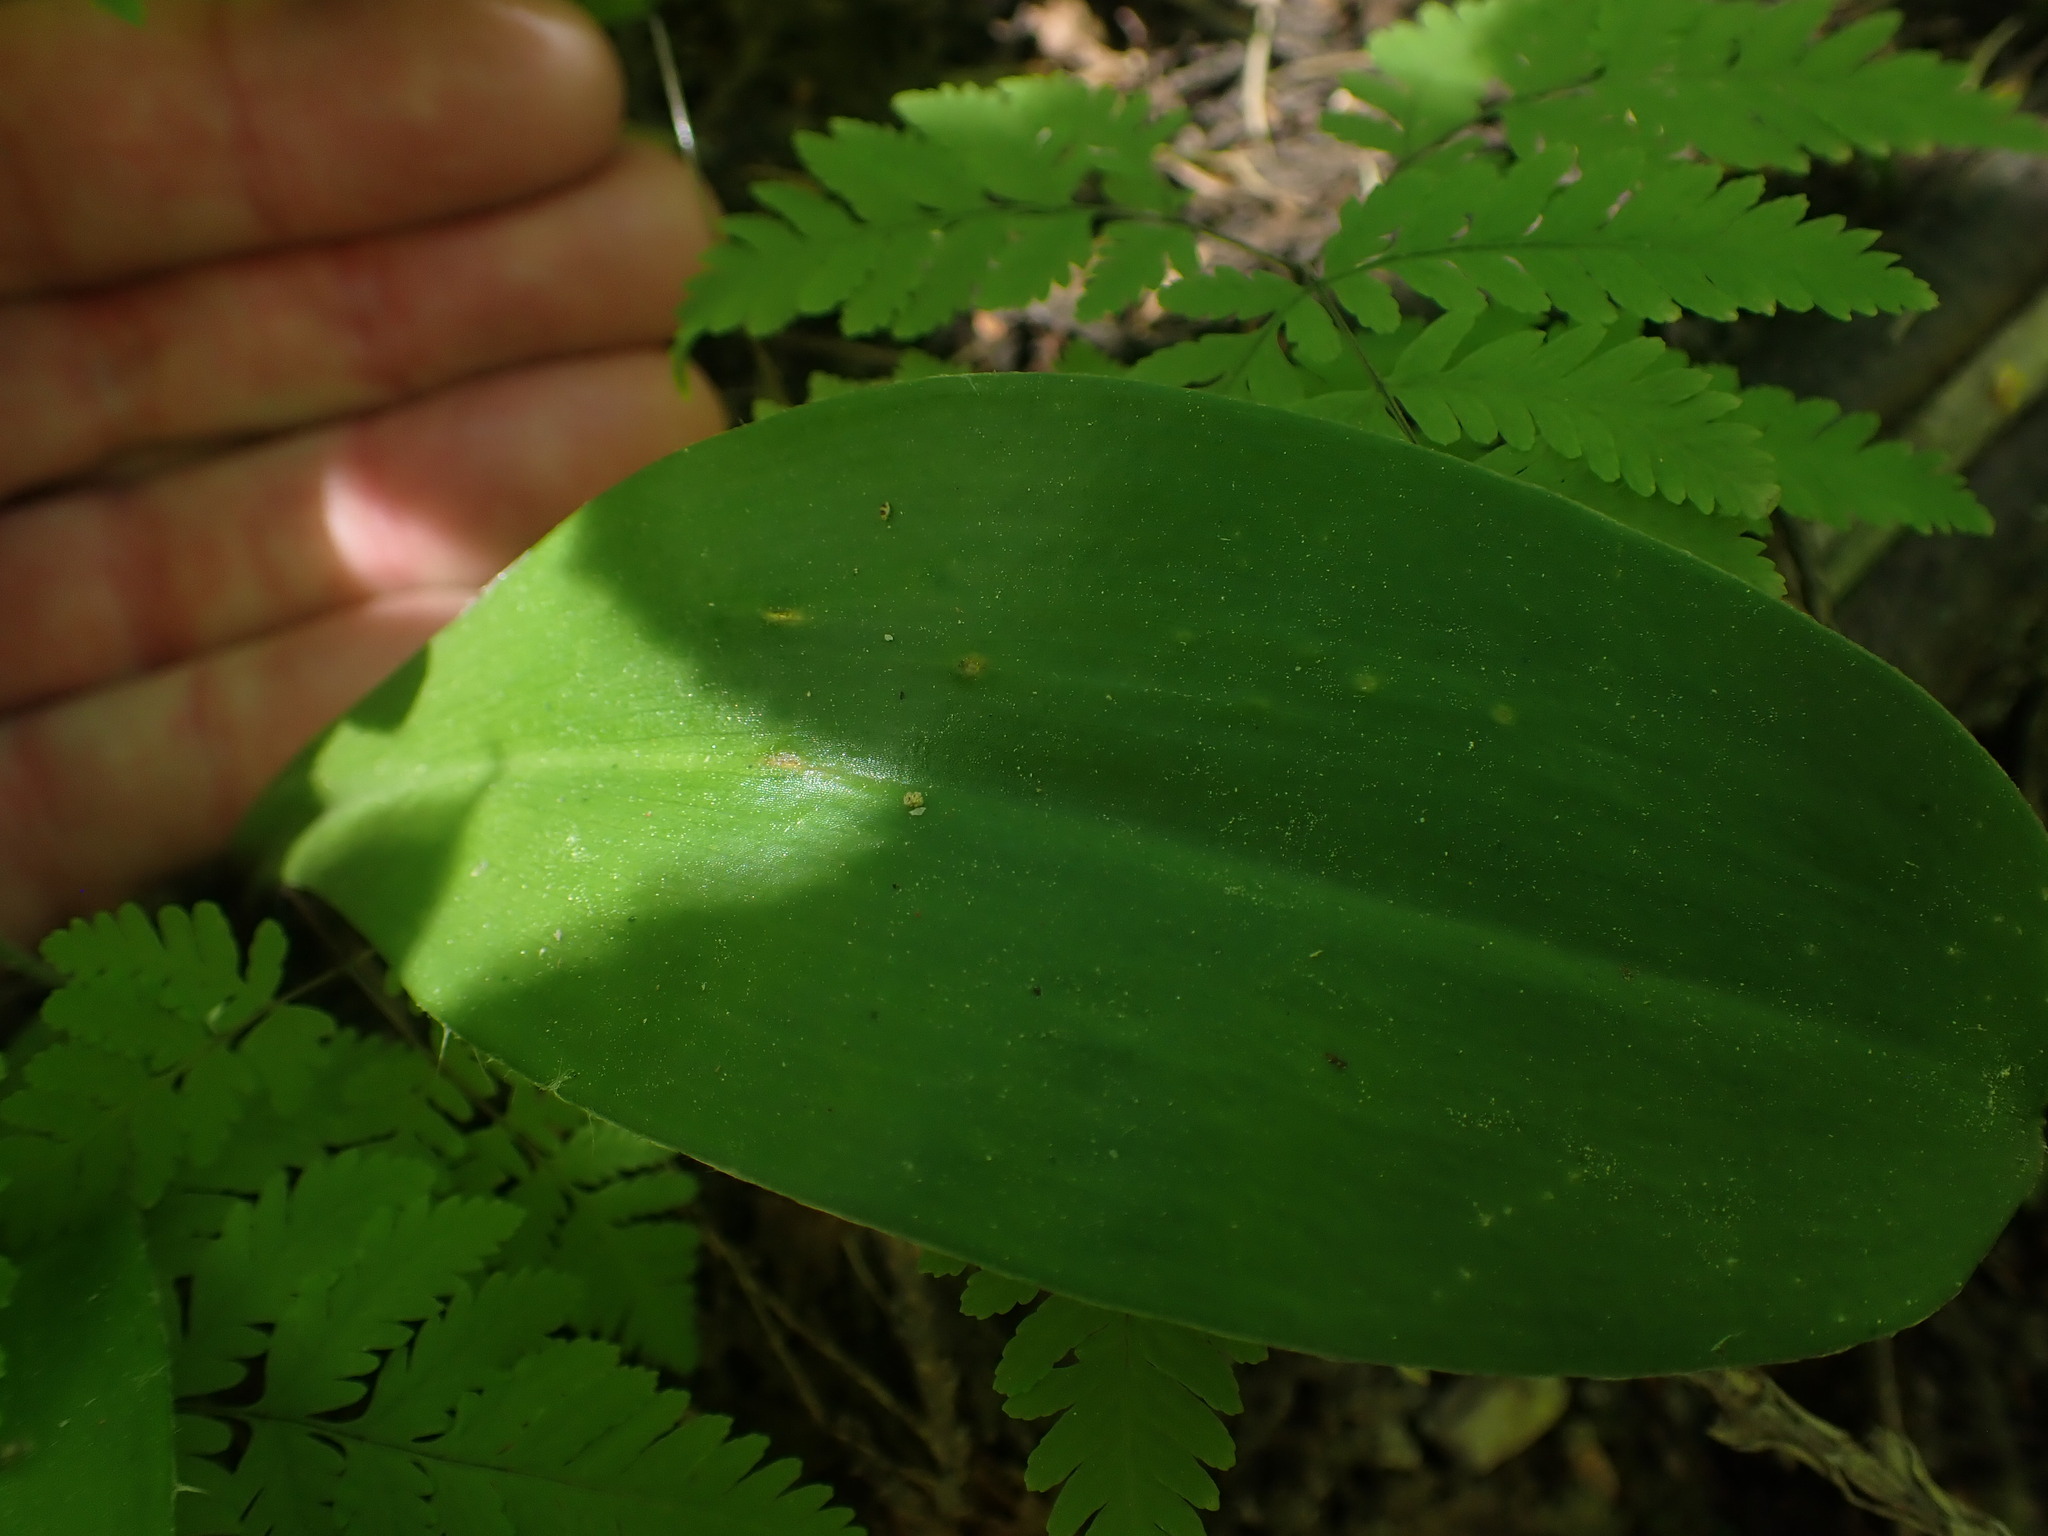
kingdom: Plantae
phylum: Tracheophyta
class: Liliopsida
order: Liliales
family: Liliaceae
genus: Clintonia
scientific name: Clintonia uniflora
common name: Queen's cup
